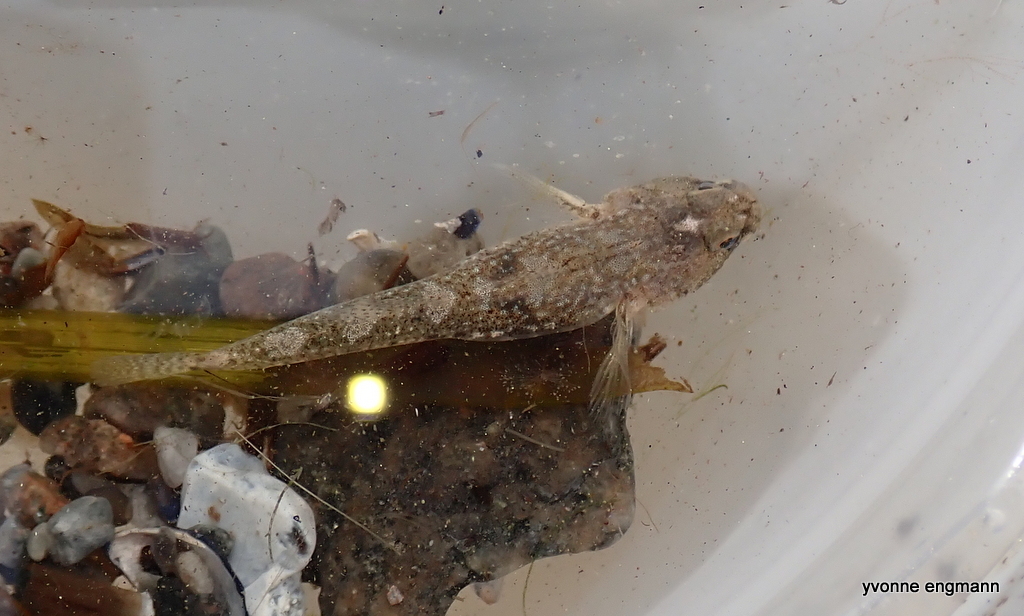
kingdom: Animalia
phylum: Chordata
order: Perciformes
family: Gobiidae
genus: Pomatoschistus
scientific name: Pomatoschistus
